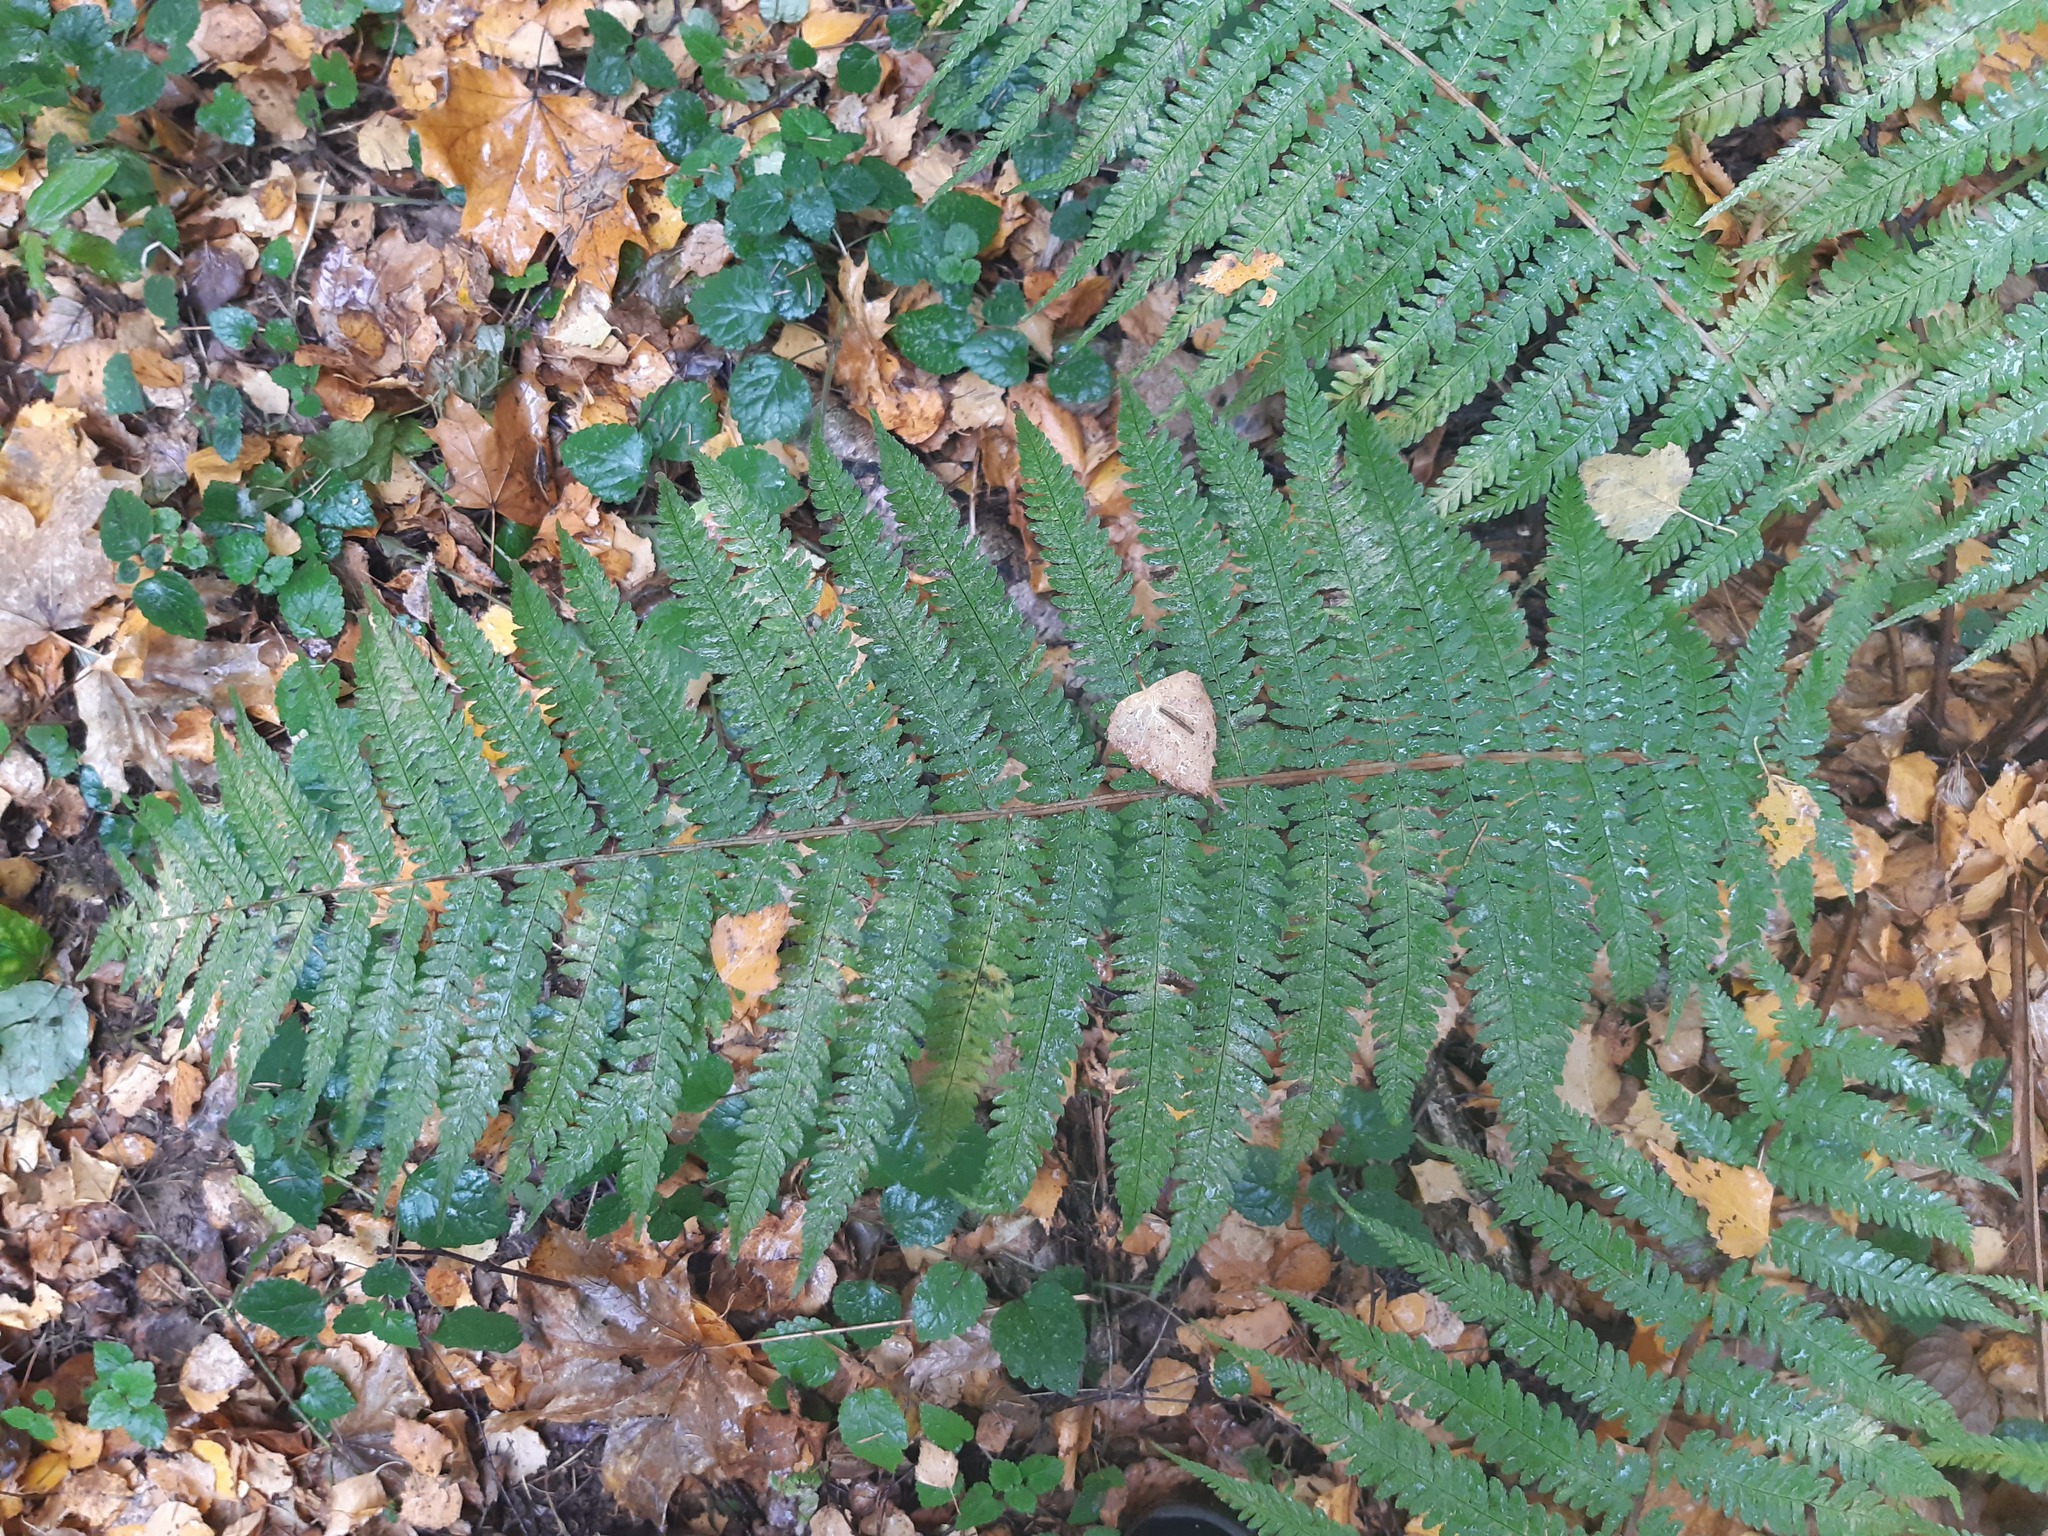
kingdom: Plantae
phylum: Tracheophyta
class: Polypodiopsida
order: Polypodiales
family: Dryopteridaceae
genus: Dryopteris
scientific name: Dryopteris filix-mas
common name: Male fern
